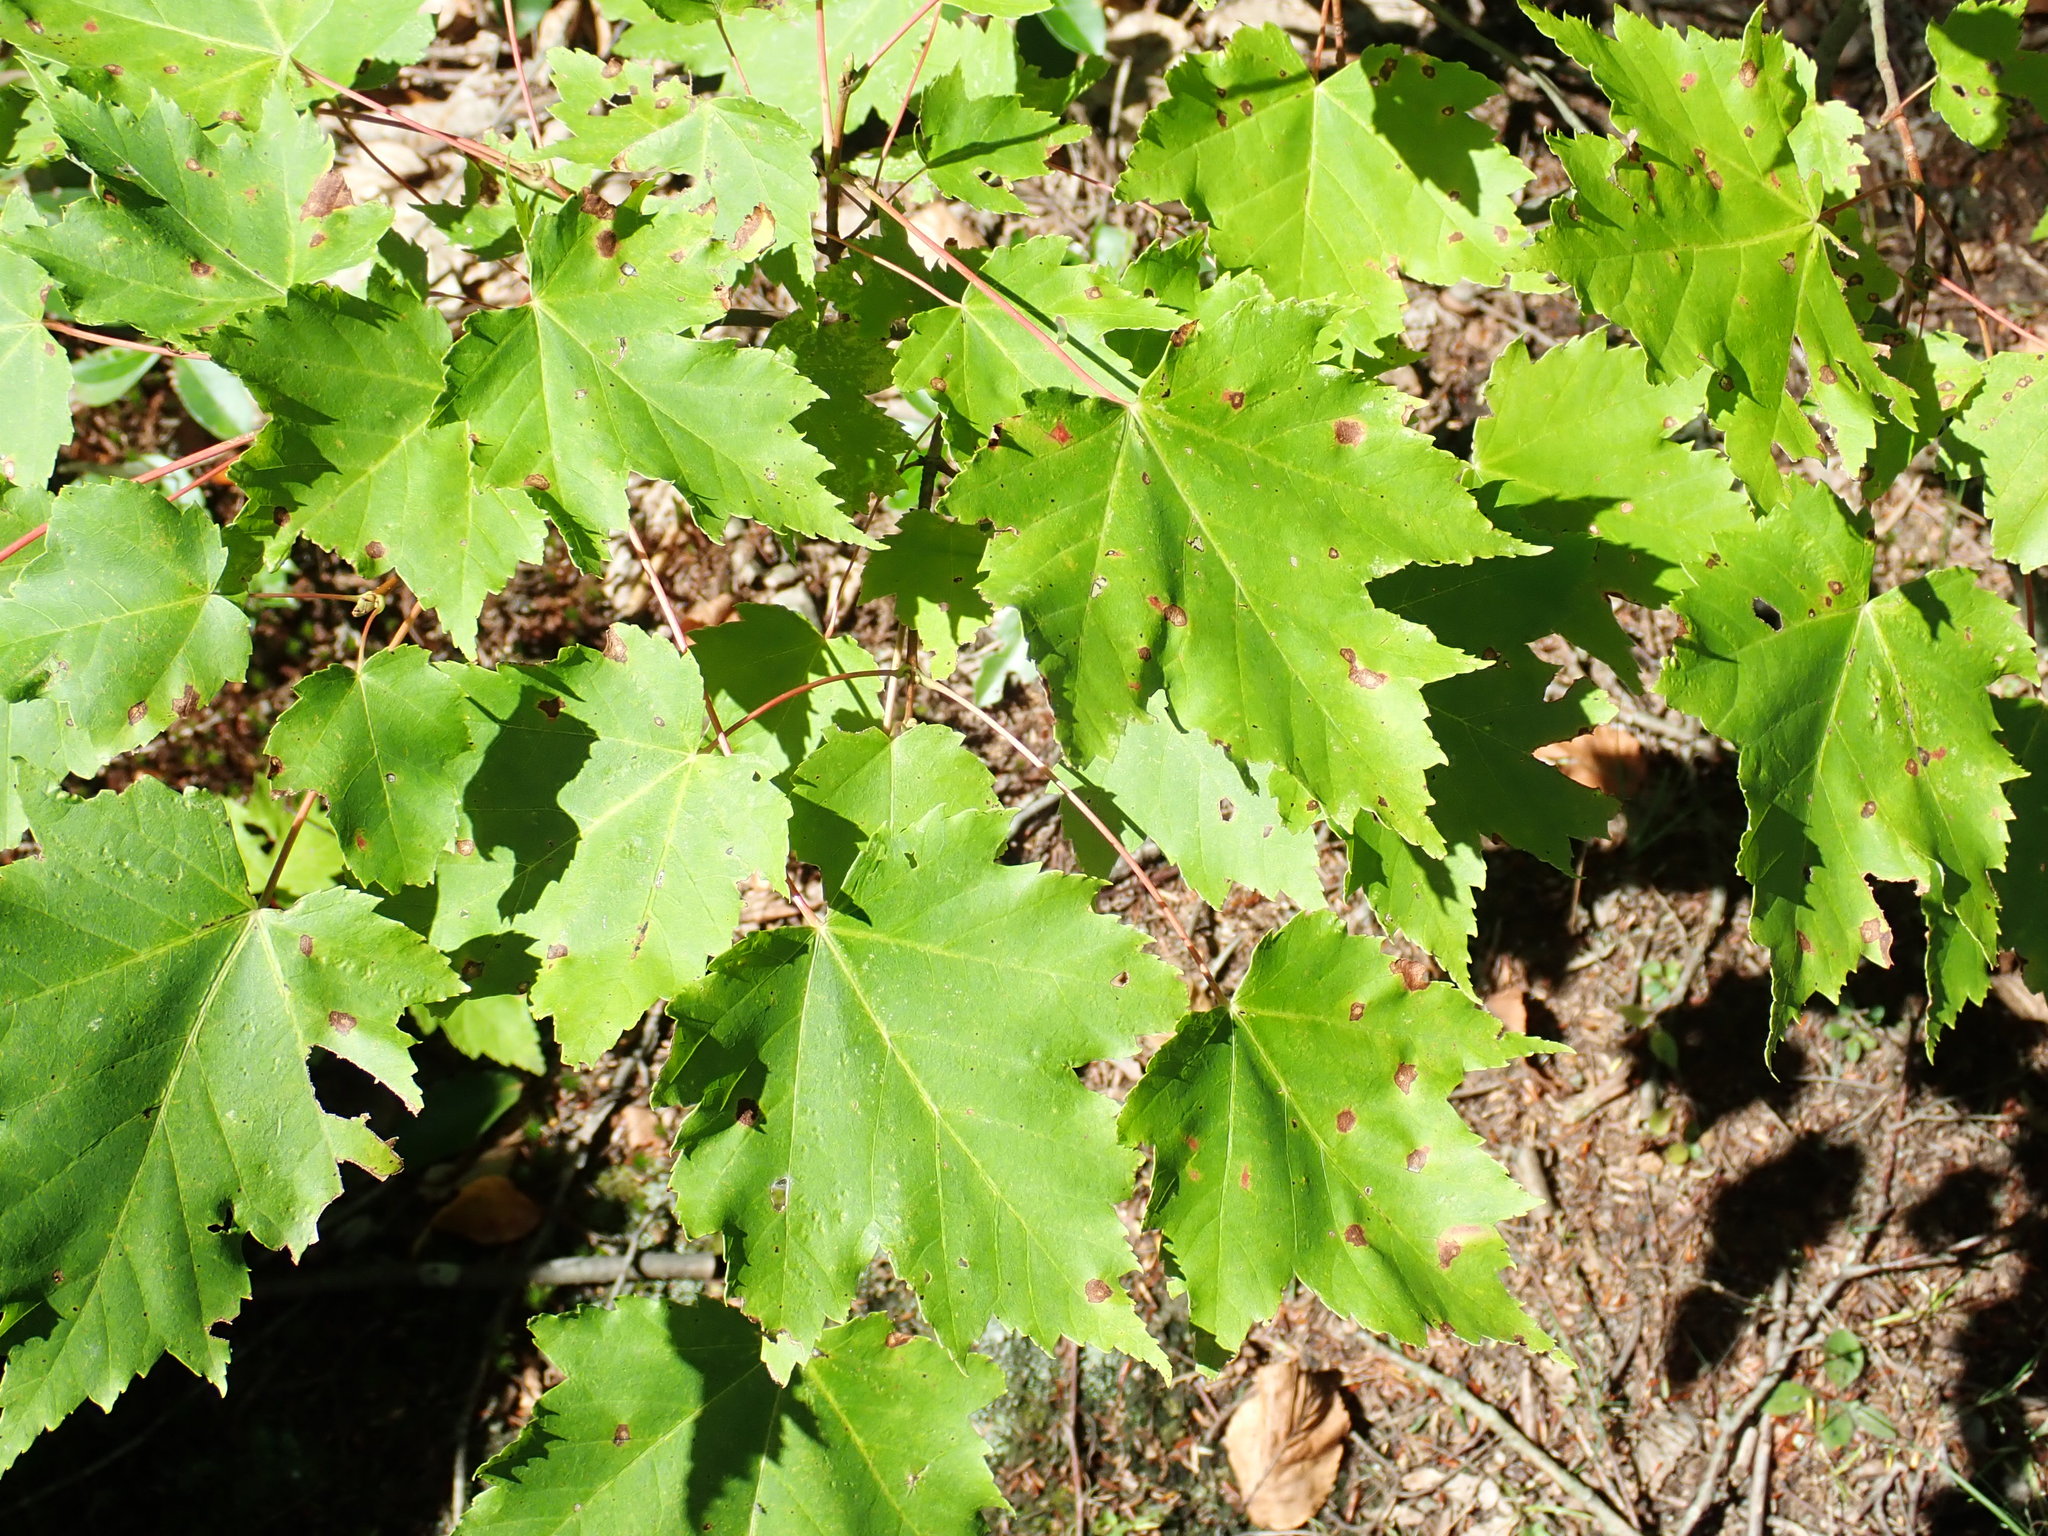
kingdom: Plantae
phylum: Tracheophyta
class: Magnoliopsida
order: Sapindales
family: Sapindaceae
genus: Acer
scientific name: Acer rubrum
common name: Red maple
